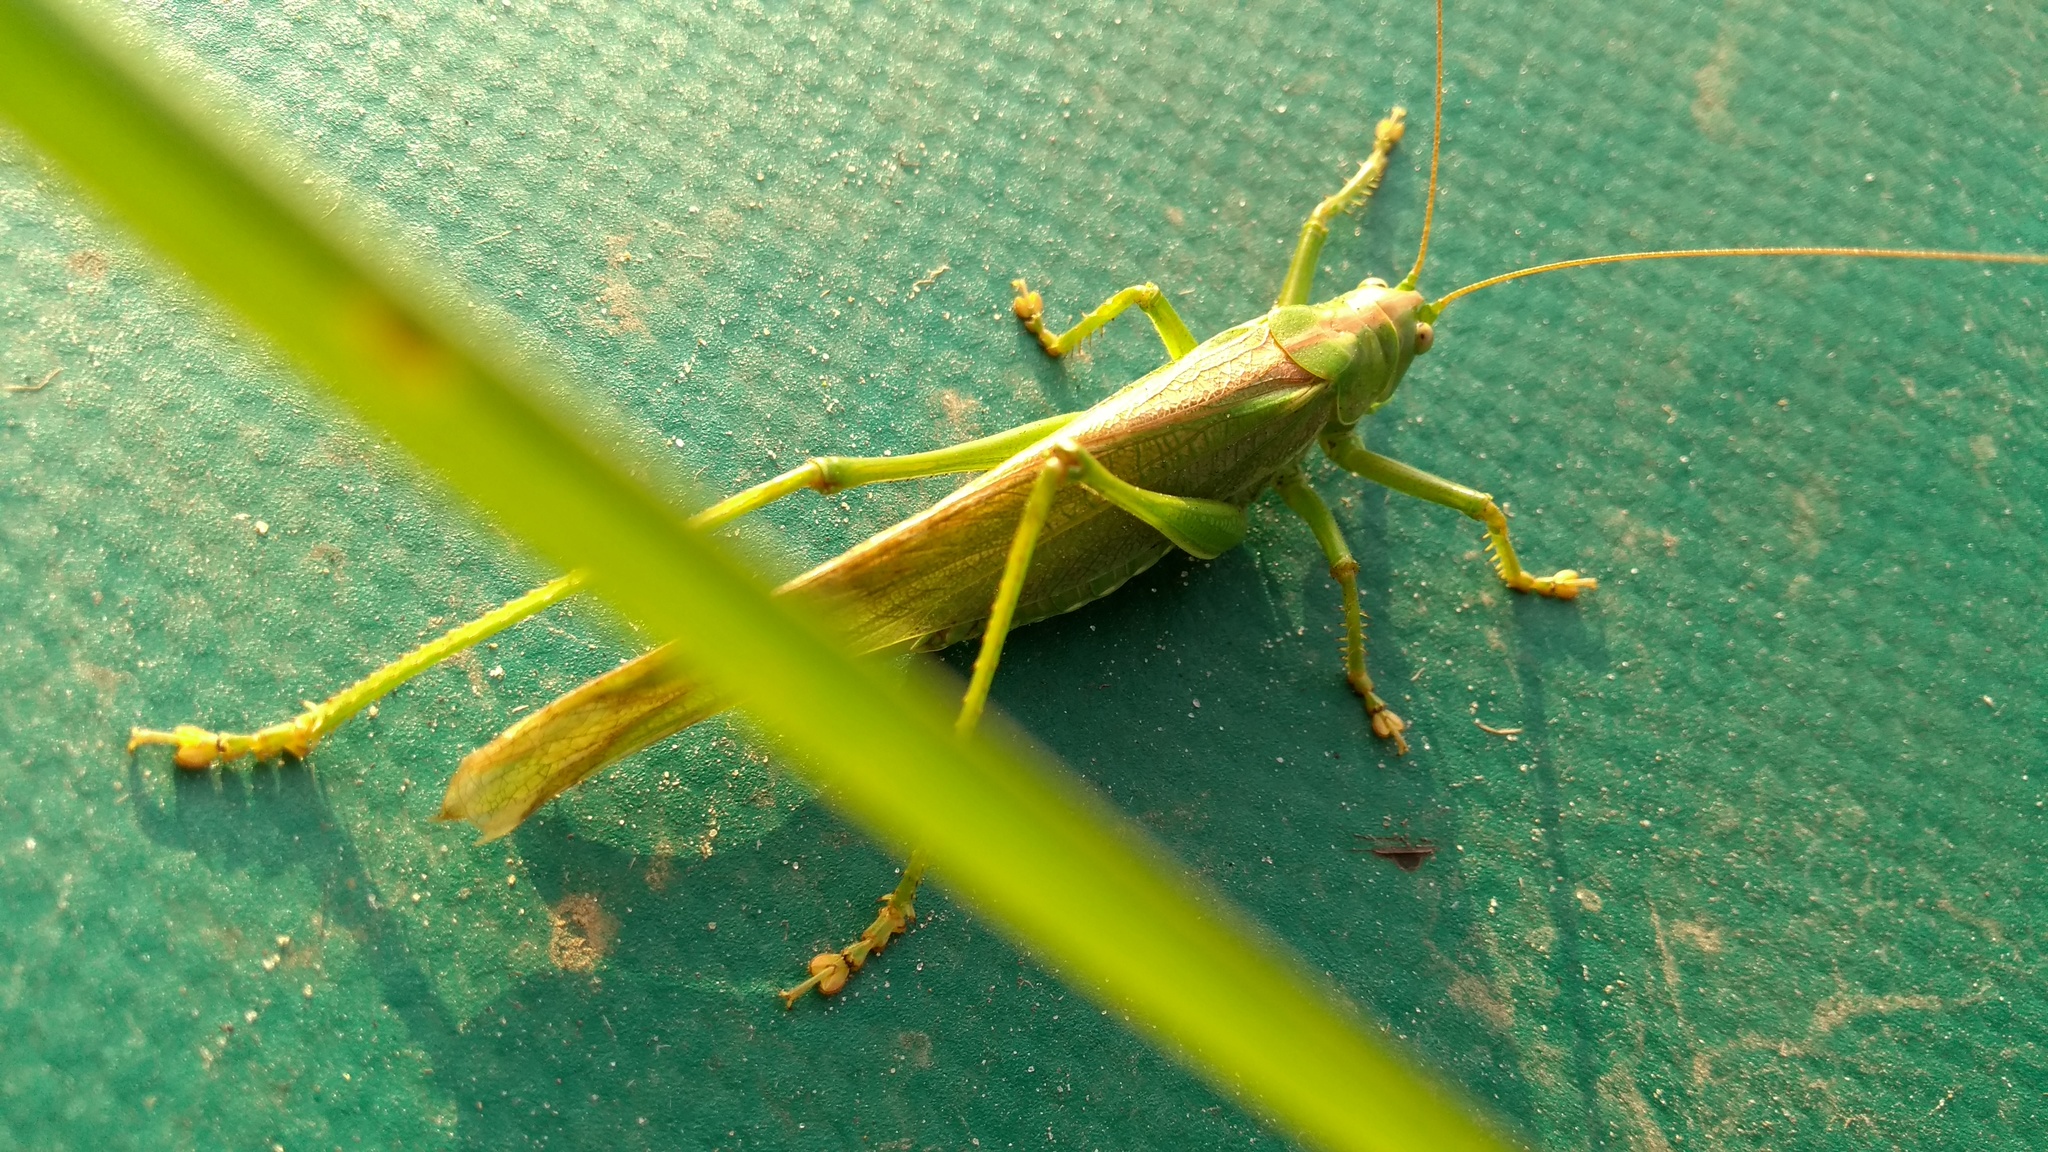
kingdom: Animalia
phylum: Arthropoda
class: Insecta
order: Orthoptera
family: Tettigoniidae
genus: Tettigonia
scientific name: Tettigonia viridissima
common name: Great green bush-cricket
